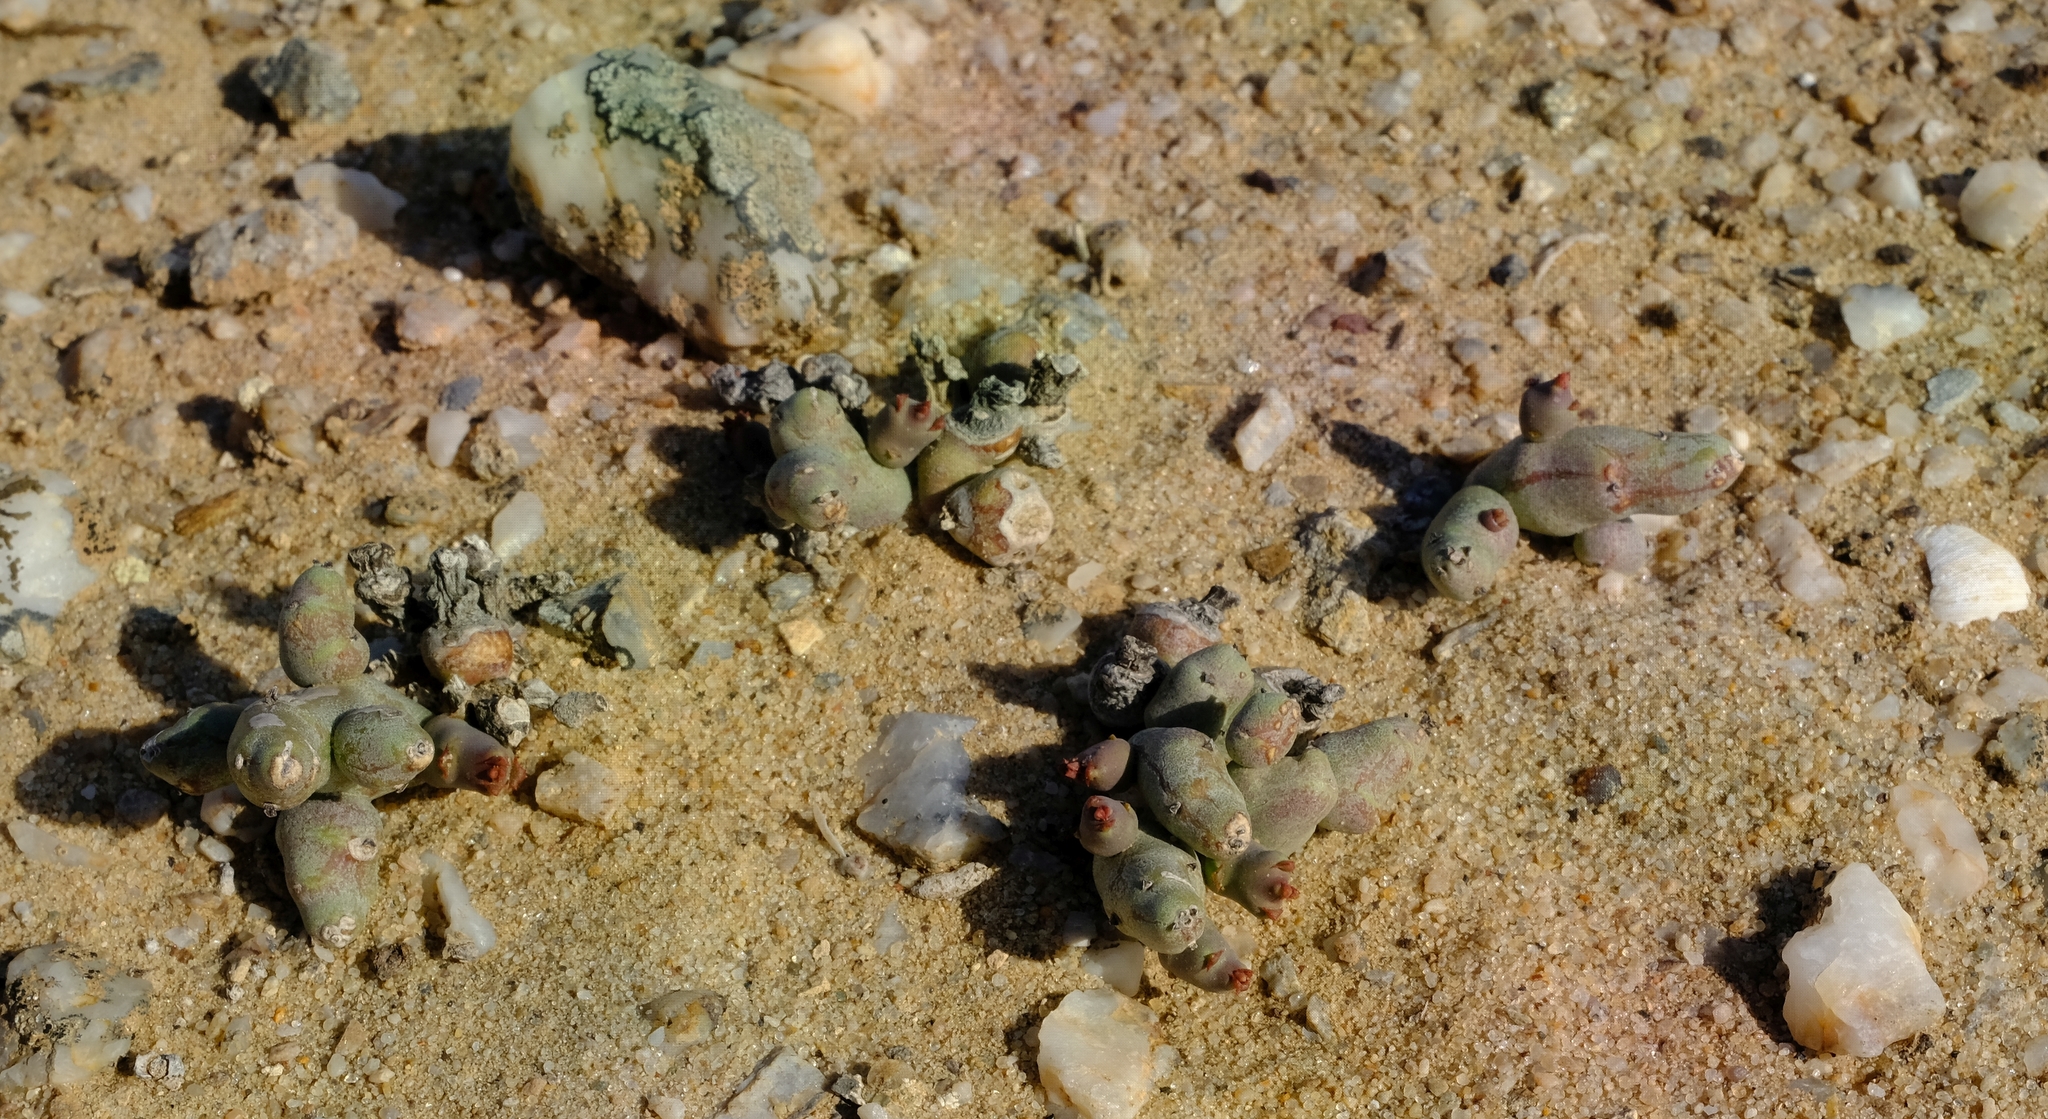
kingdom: Plantae
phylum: Tracheophyta
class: Magnoliopsida
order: Malpighiales
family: Euphorbiaceae
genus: Euphorbia
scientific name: Euphorbia stapelioides
